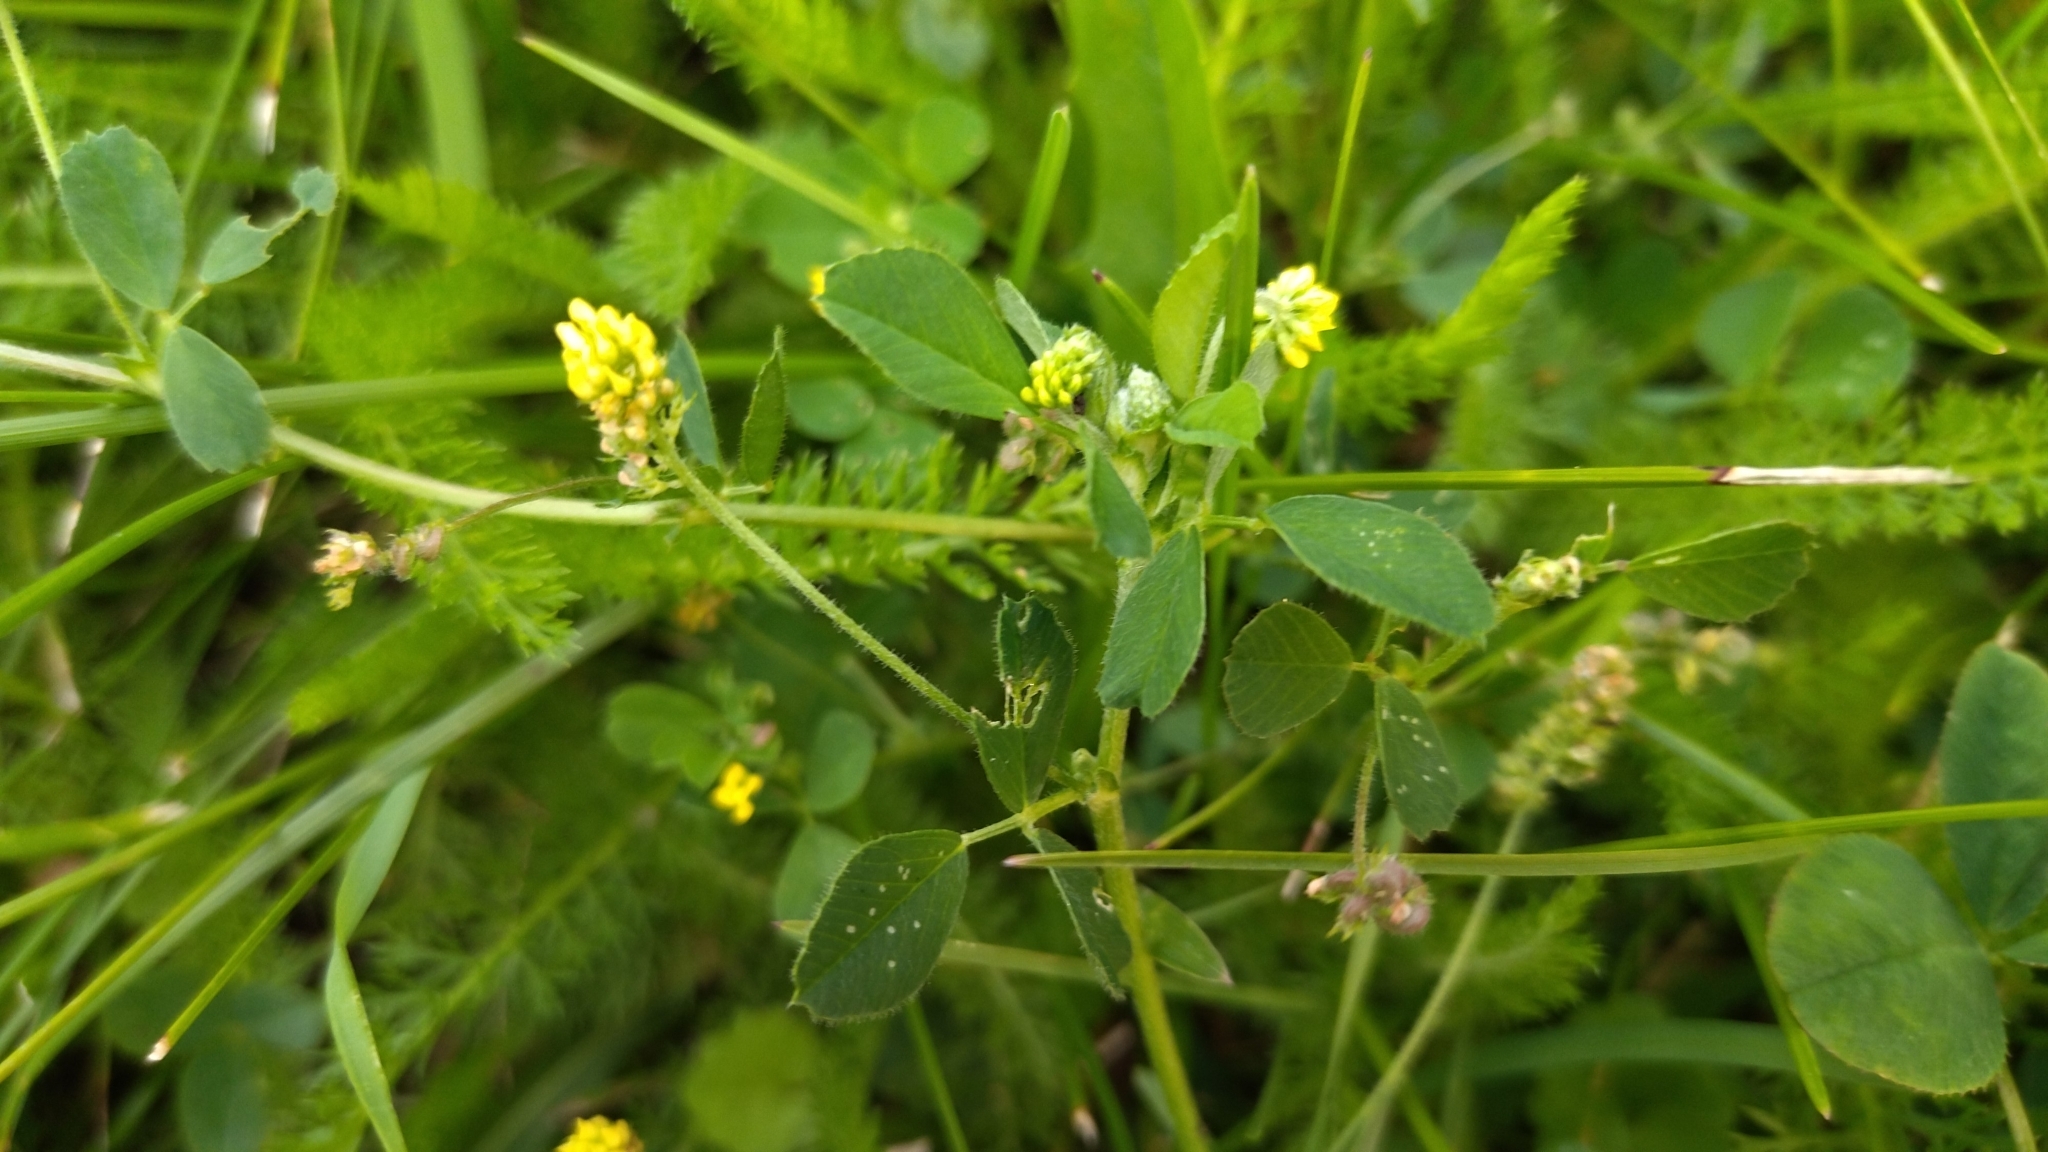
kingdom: Plantae
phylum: Tracheophyta
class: Magnoliopsida
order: Fabales
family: Fabaceae
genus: Medicago
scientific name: Medicago lupulina
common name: Black medick
